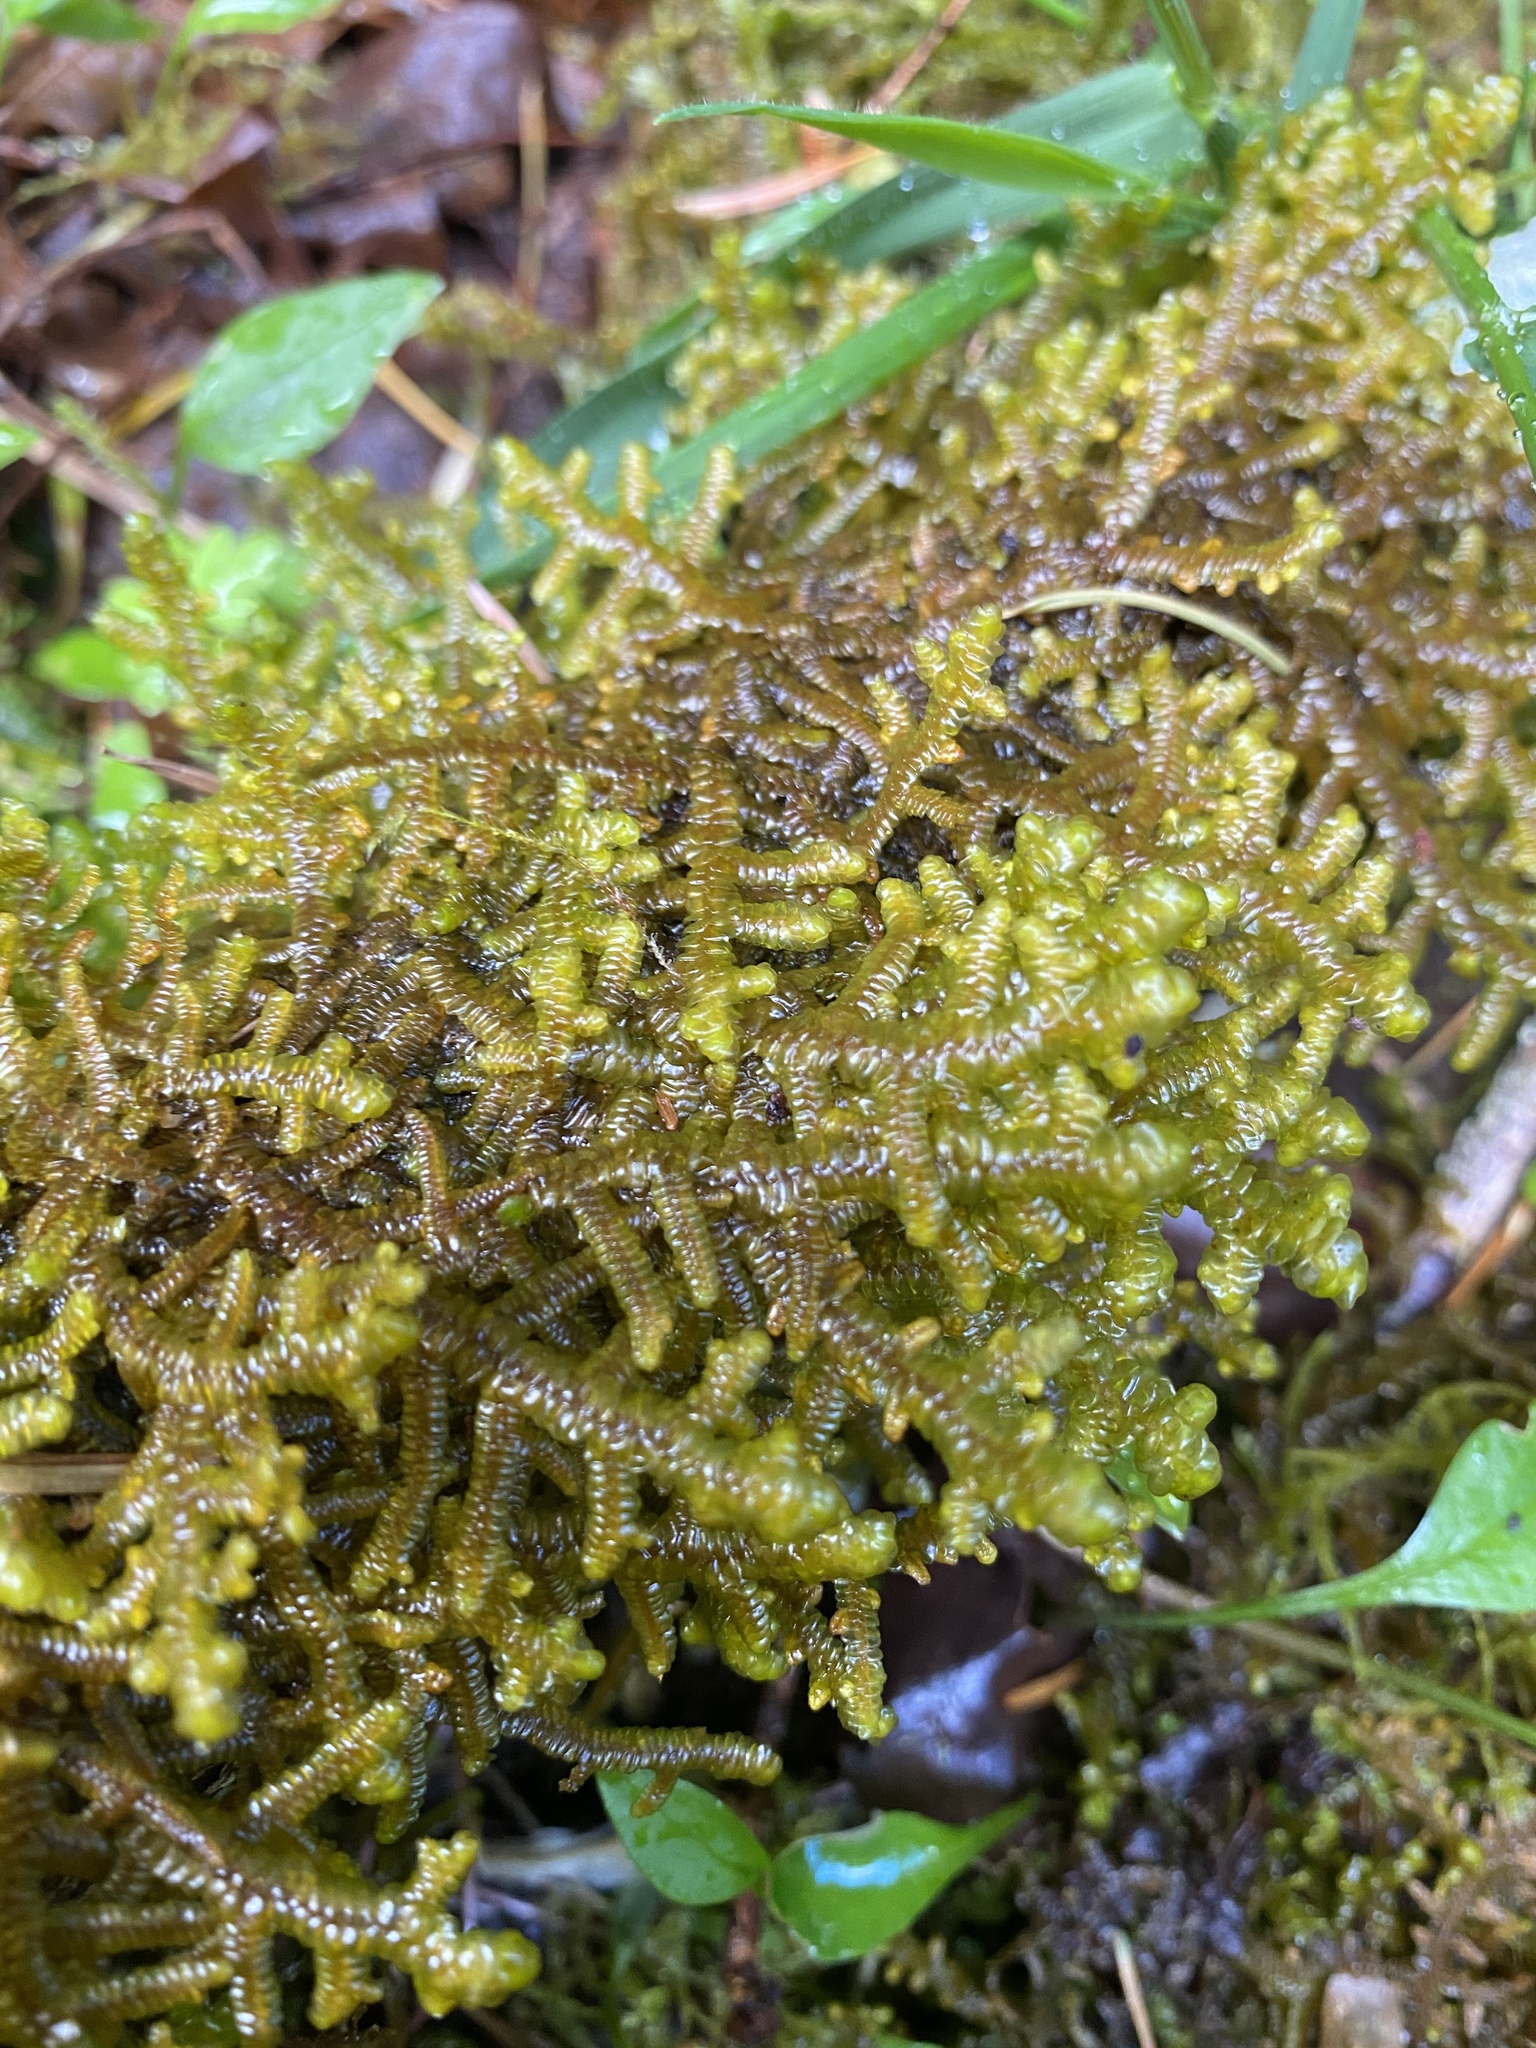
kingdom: Plantae
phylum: Marchantiophyta
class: Jungermanniopsida
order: Porellales
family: Porellaceae
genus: Porella
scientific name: Porella navicularis
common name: Tree ruffle liverwort
